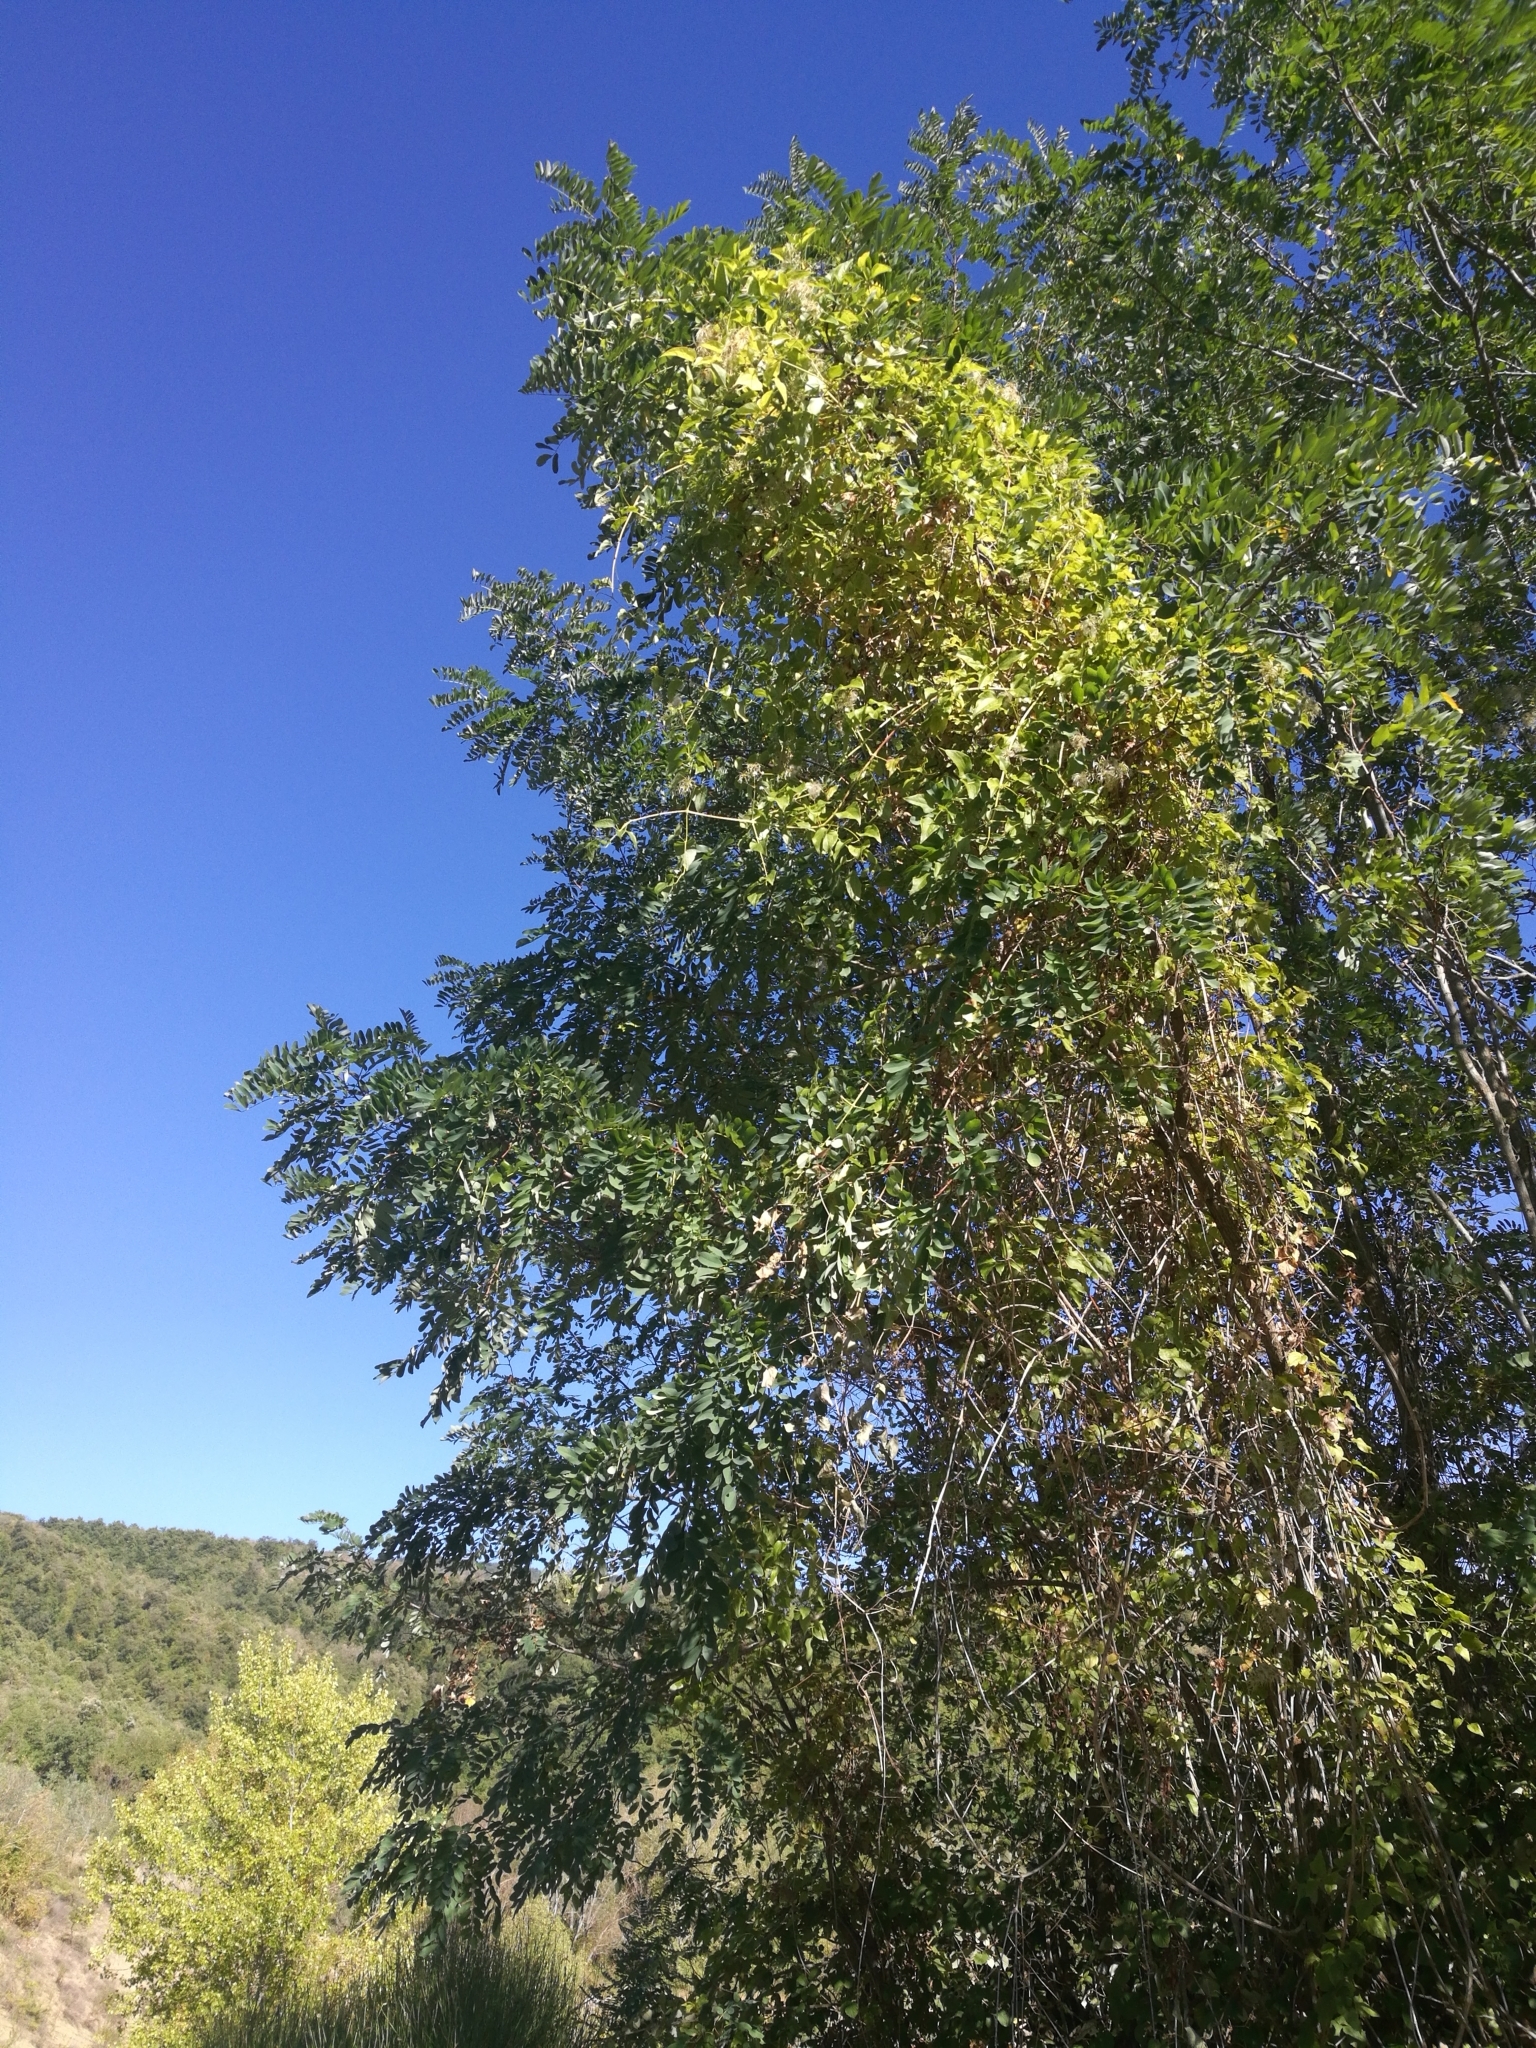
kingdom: Plantae
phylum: Tracheophyta
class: Magnoliopsida
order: Fabales
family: Fabaceae
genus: Robinia
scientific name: Robinia pseudoacacia
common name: Black locust
